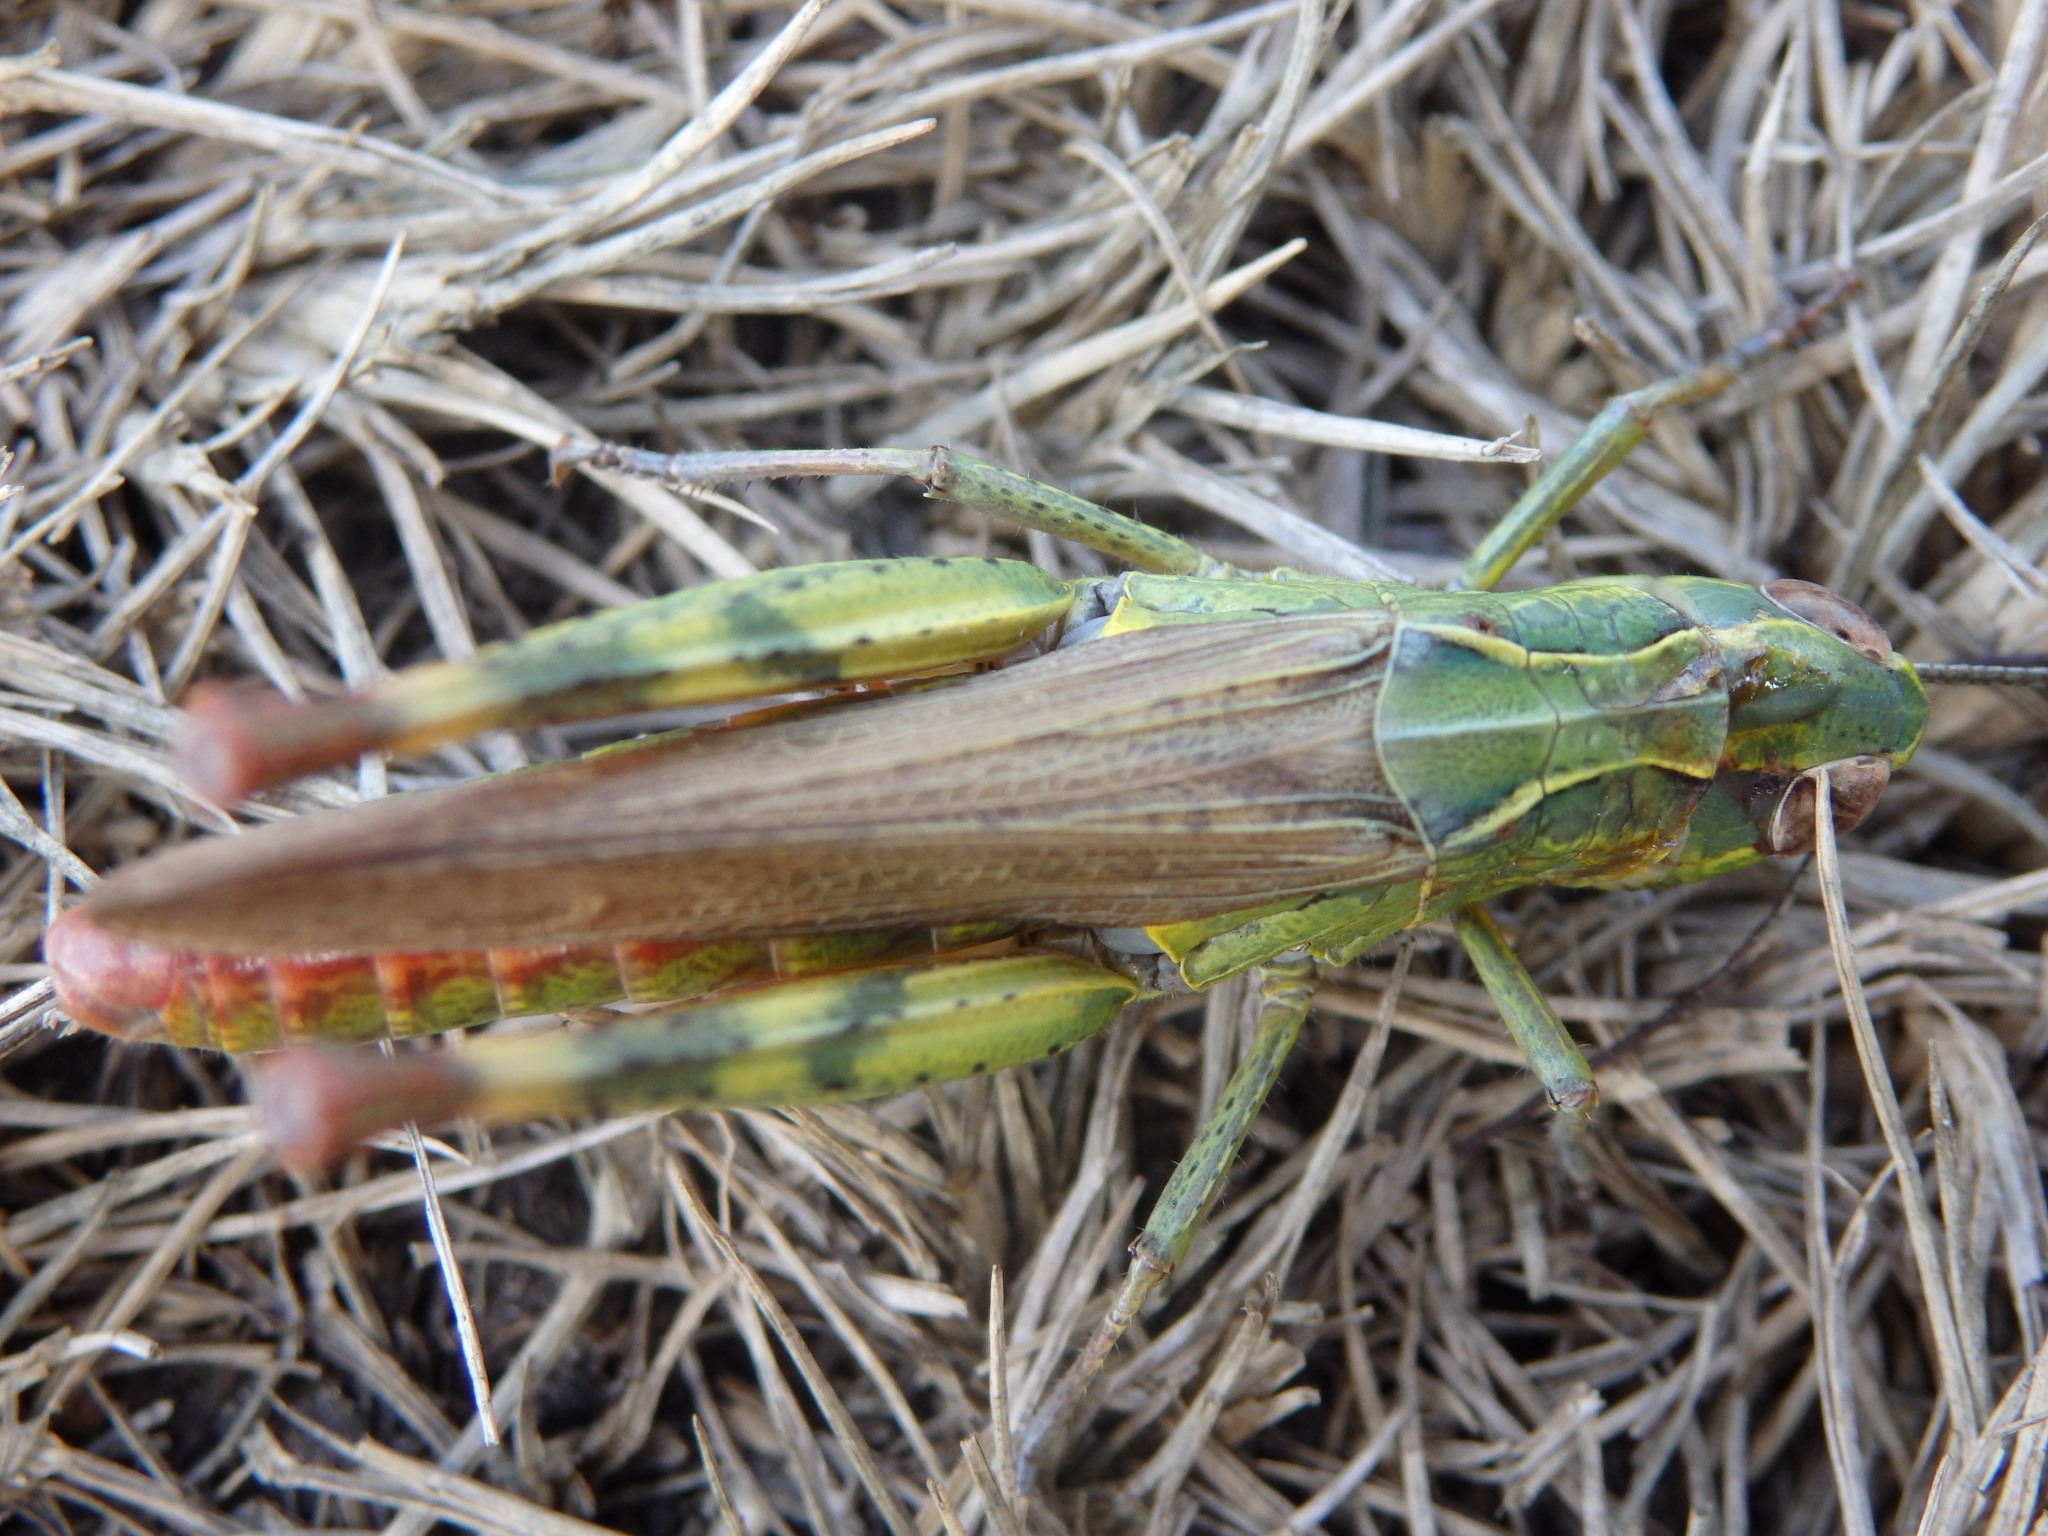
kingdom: Animalia
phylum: Arthropoda
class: Insecta
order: Orthoptera
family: Acrididae
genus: Chorthippus
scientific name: Chorthippus binotatus
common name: Two-marked grasshopper
